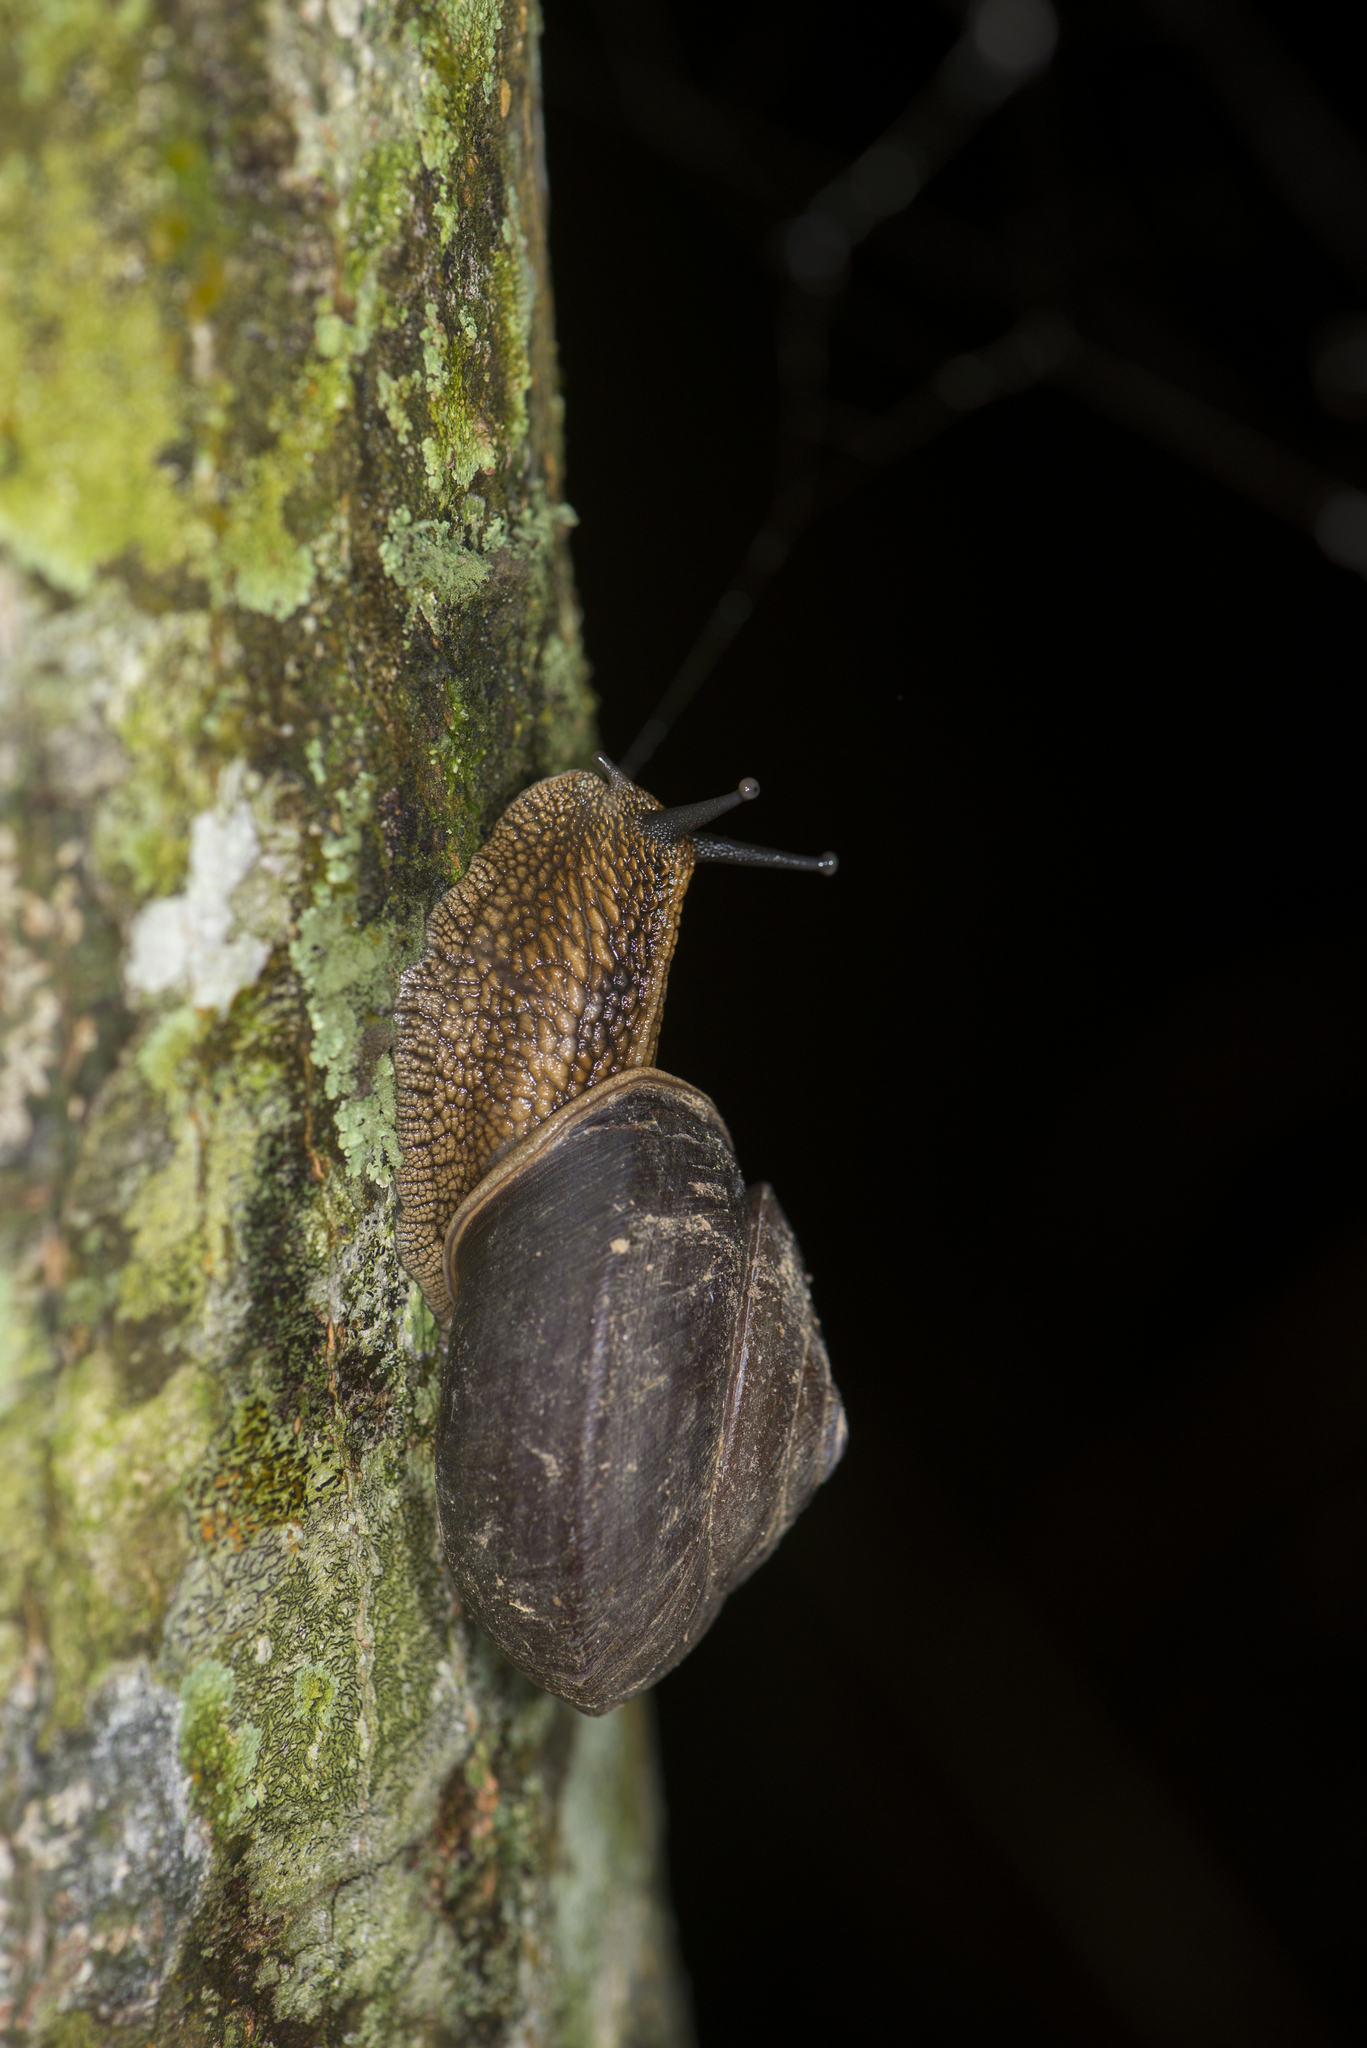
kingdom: Animalia
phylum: Mollusca
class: Gastropoda
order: Stylommatophora
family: Camaenidae
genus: Nesiohelix
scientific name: Nesiohelix swinhoei
